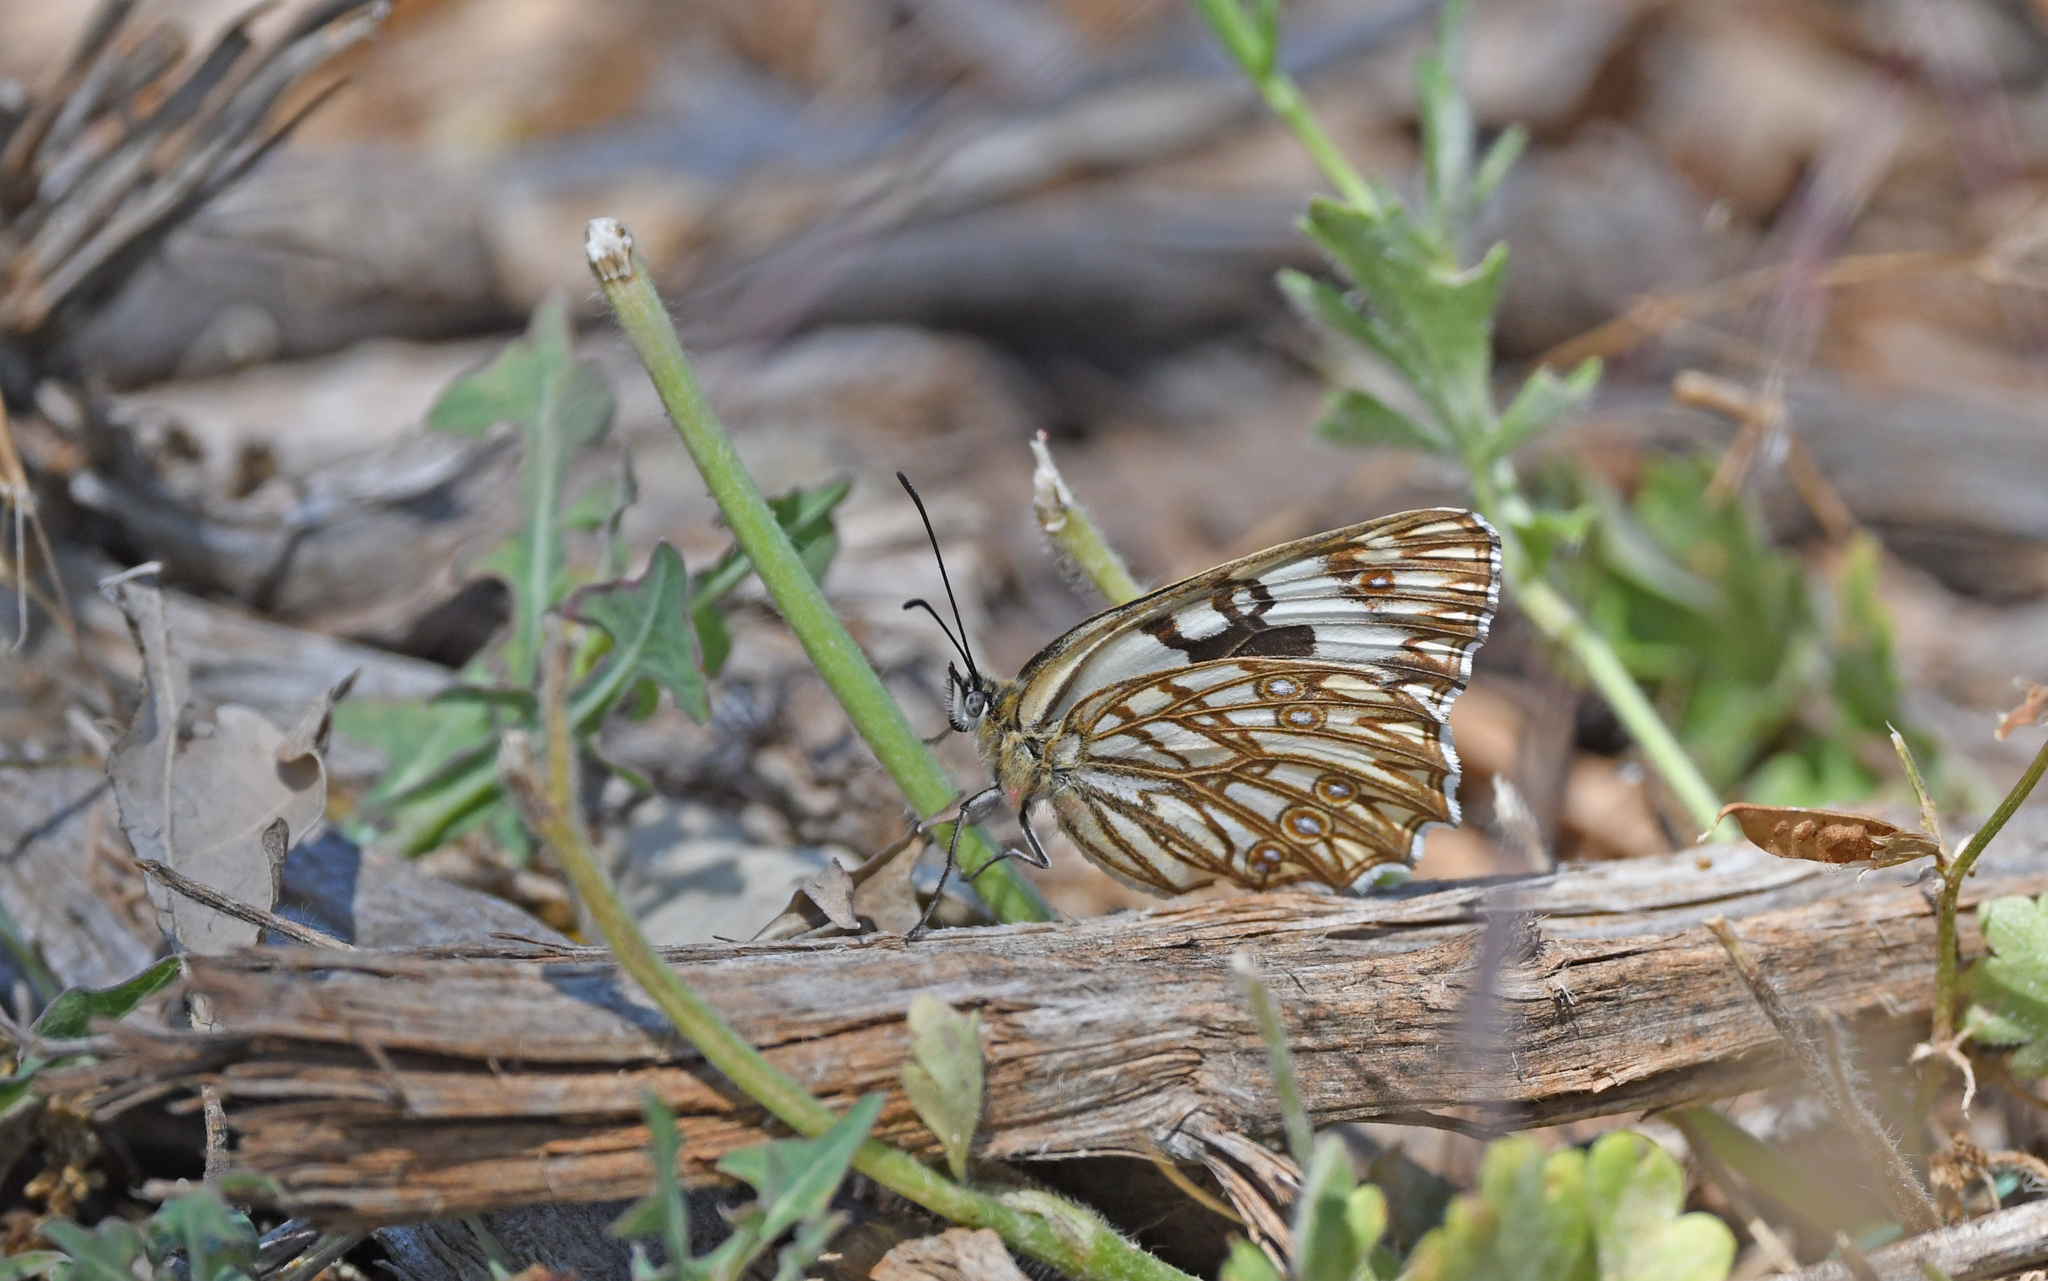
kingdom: Animalia
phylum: Arthropoda
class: Insecta
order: Lepidoptera
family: Nymphalidae
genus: Melanargia
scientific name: Melanargia occitanica
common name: Western marbled white
